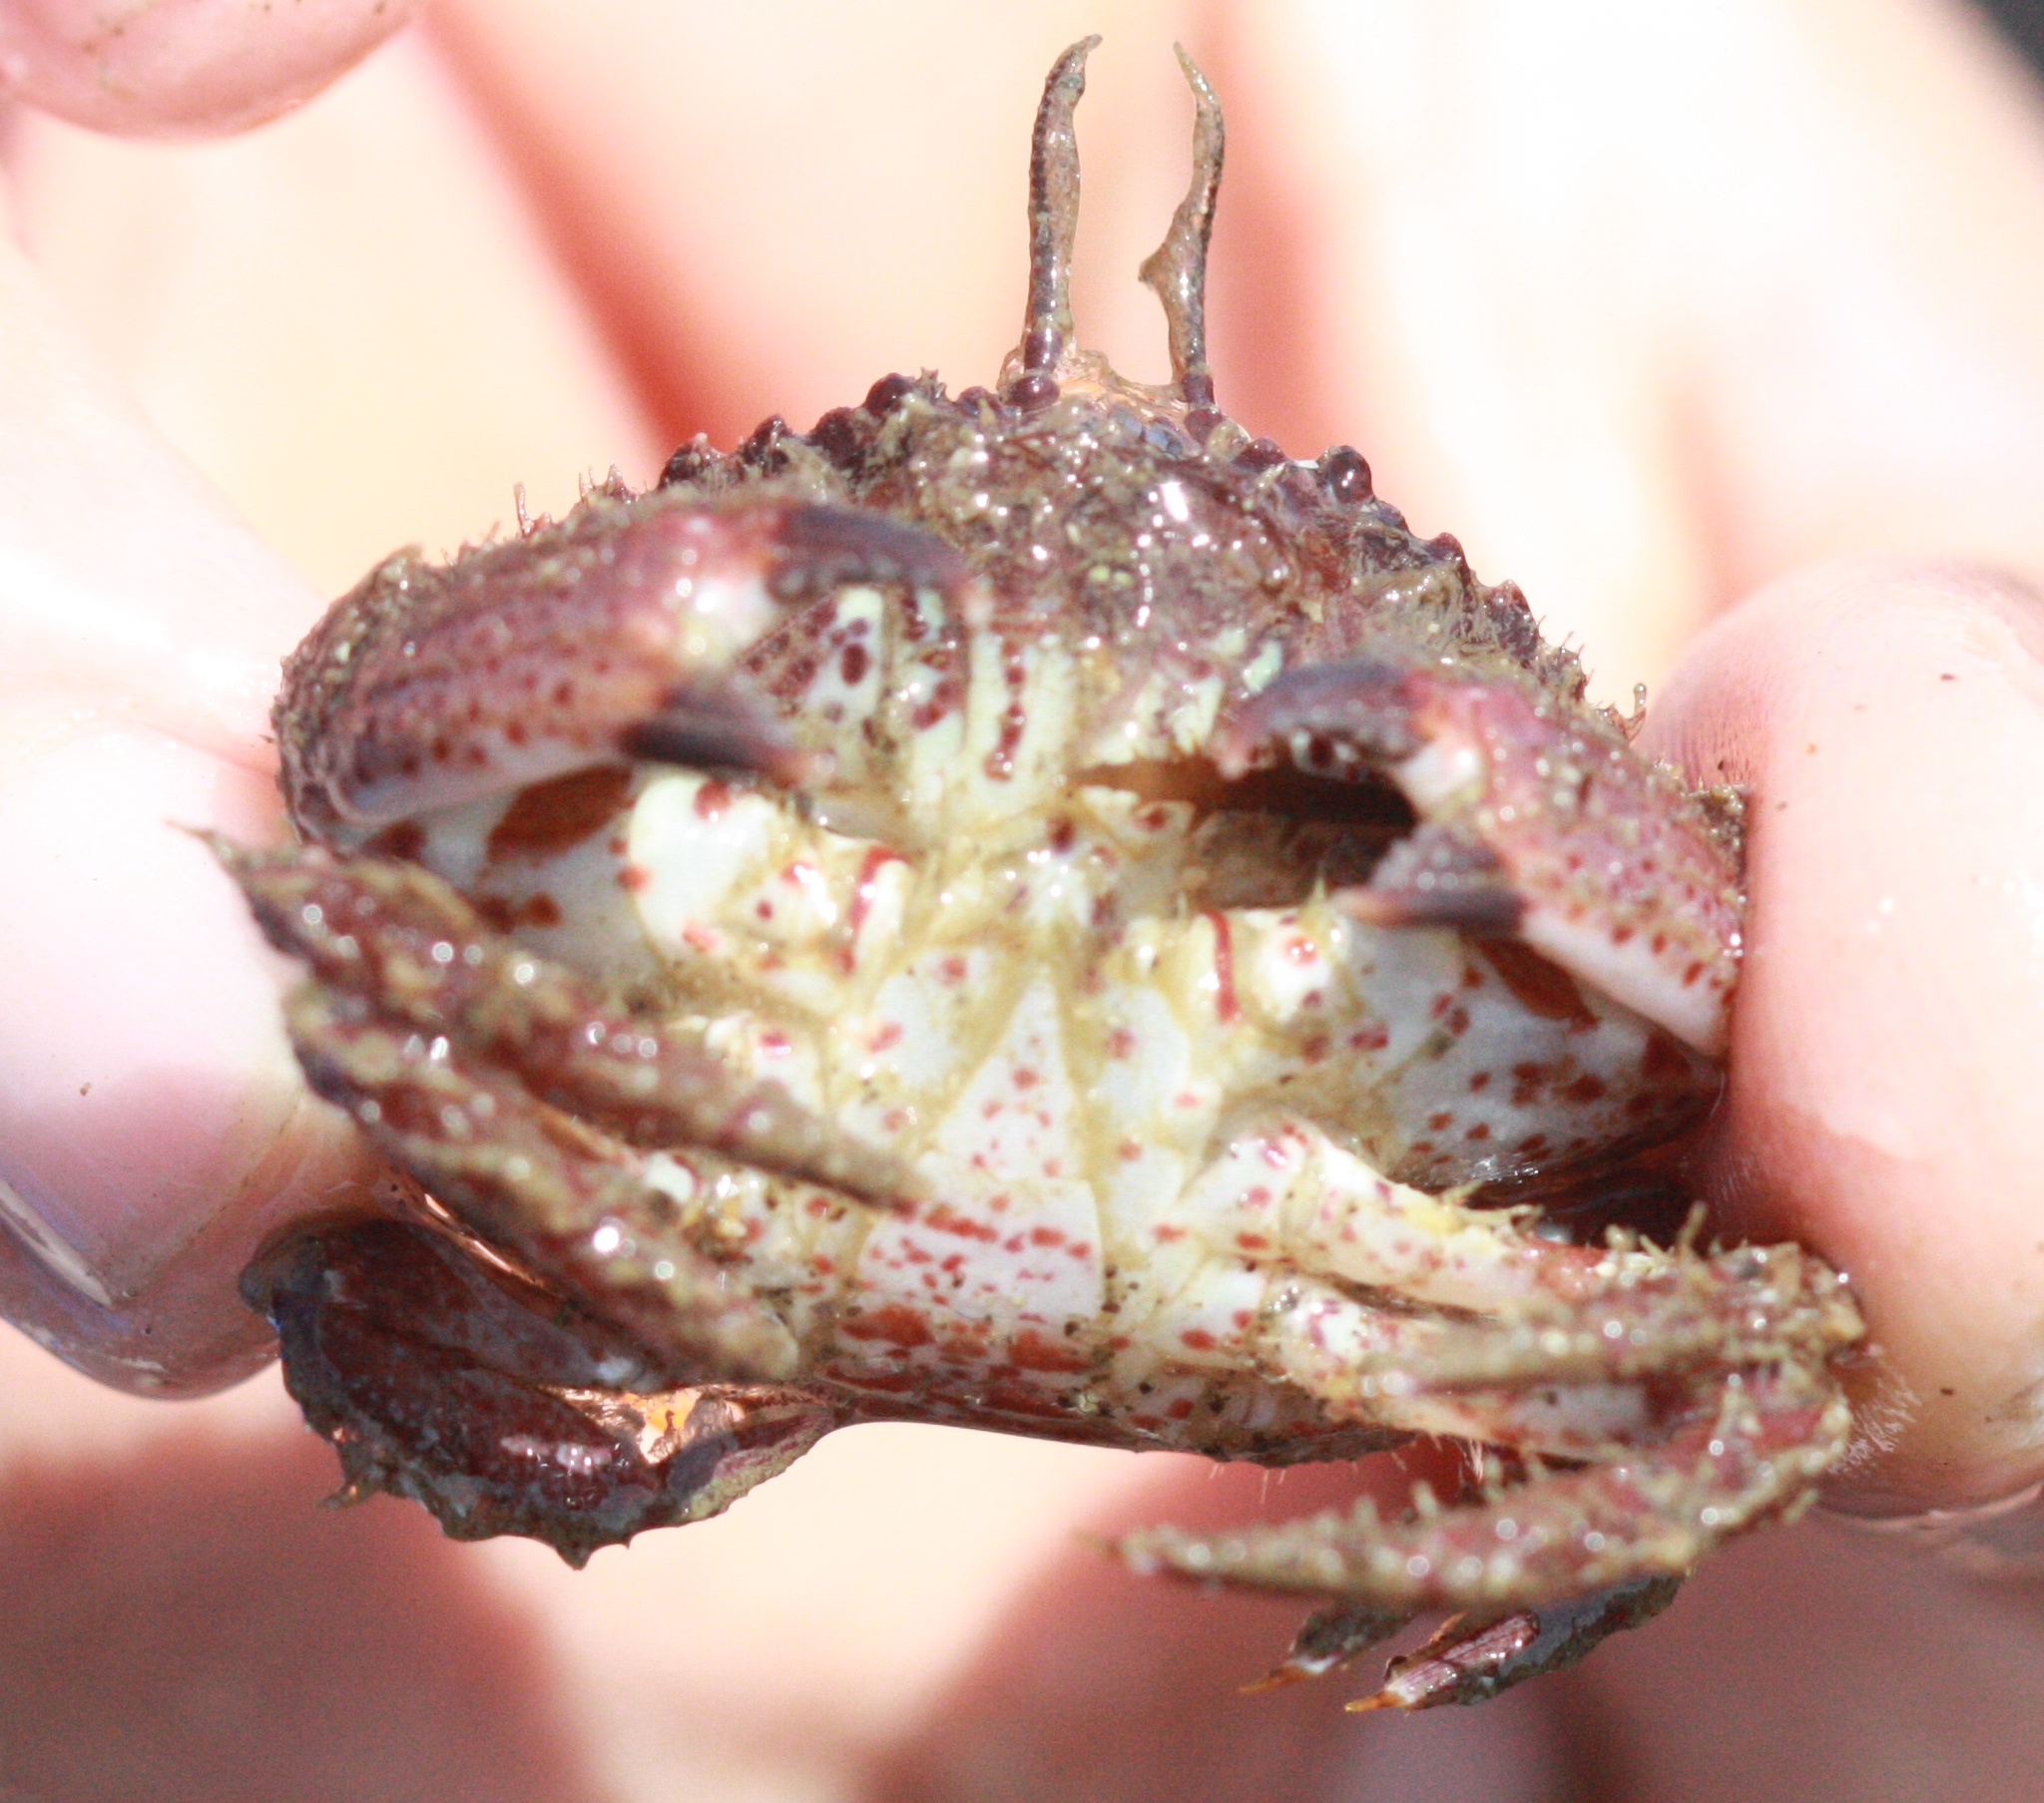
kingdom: Animalia
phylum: Arthropoda
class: Malacostraca
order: Decapoda
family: Cancridae
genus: Romaleon
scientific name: Romaleon antennarium
